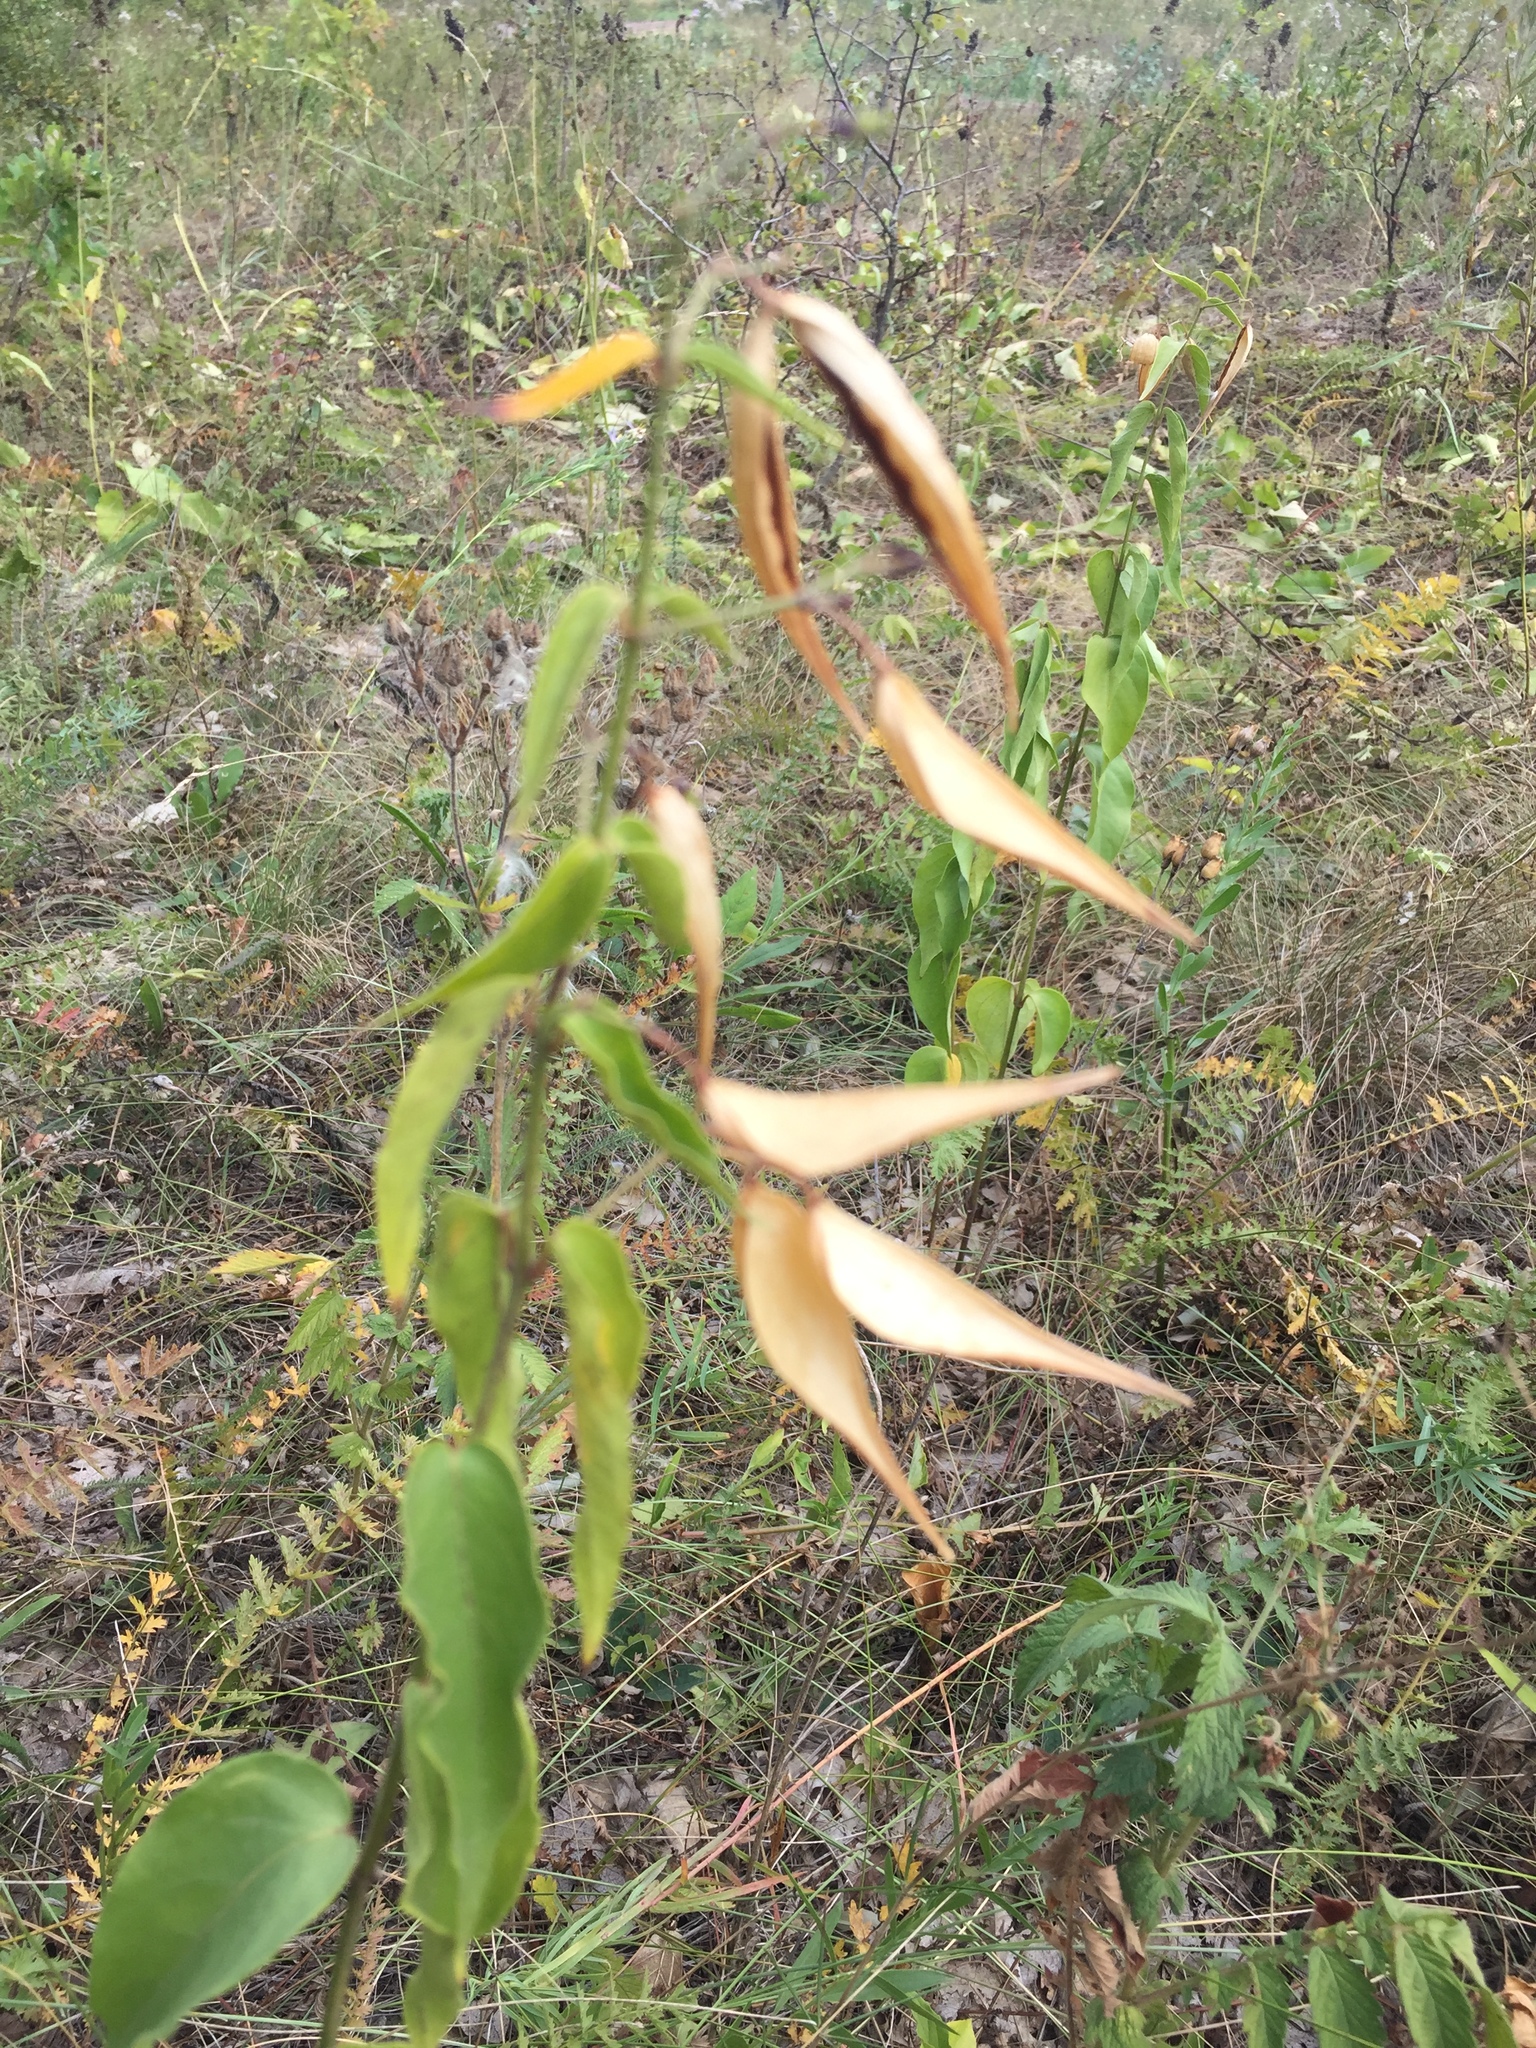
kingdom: Plantae
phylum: Tracheophyta
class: Magnoliopsida
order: Gentianales
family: Apocynaceae
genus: Vincetoxicum
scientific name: Vincetoxicum hirundinaria
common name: White swallowwort
